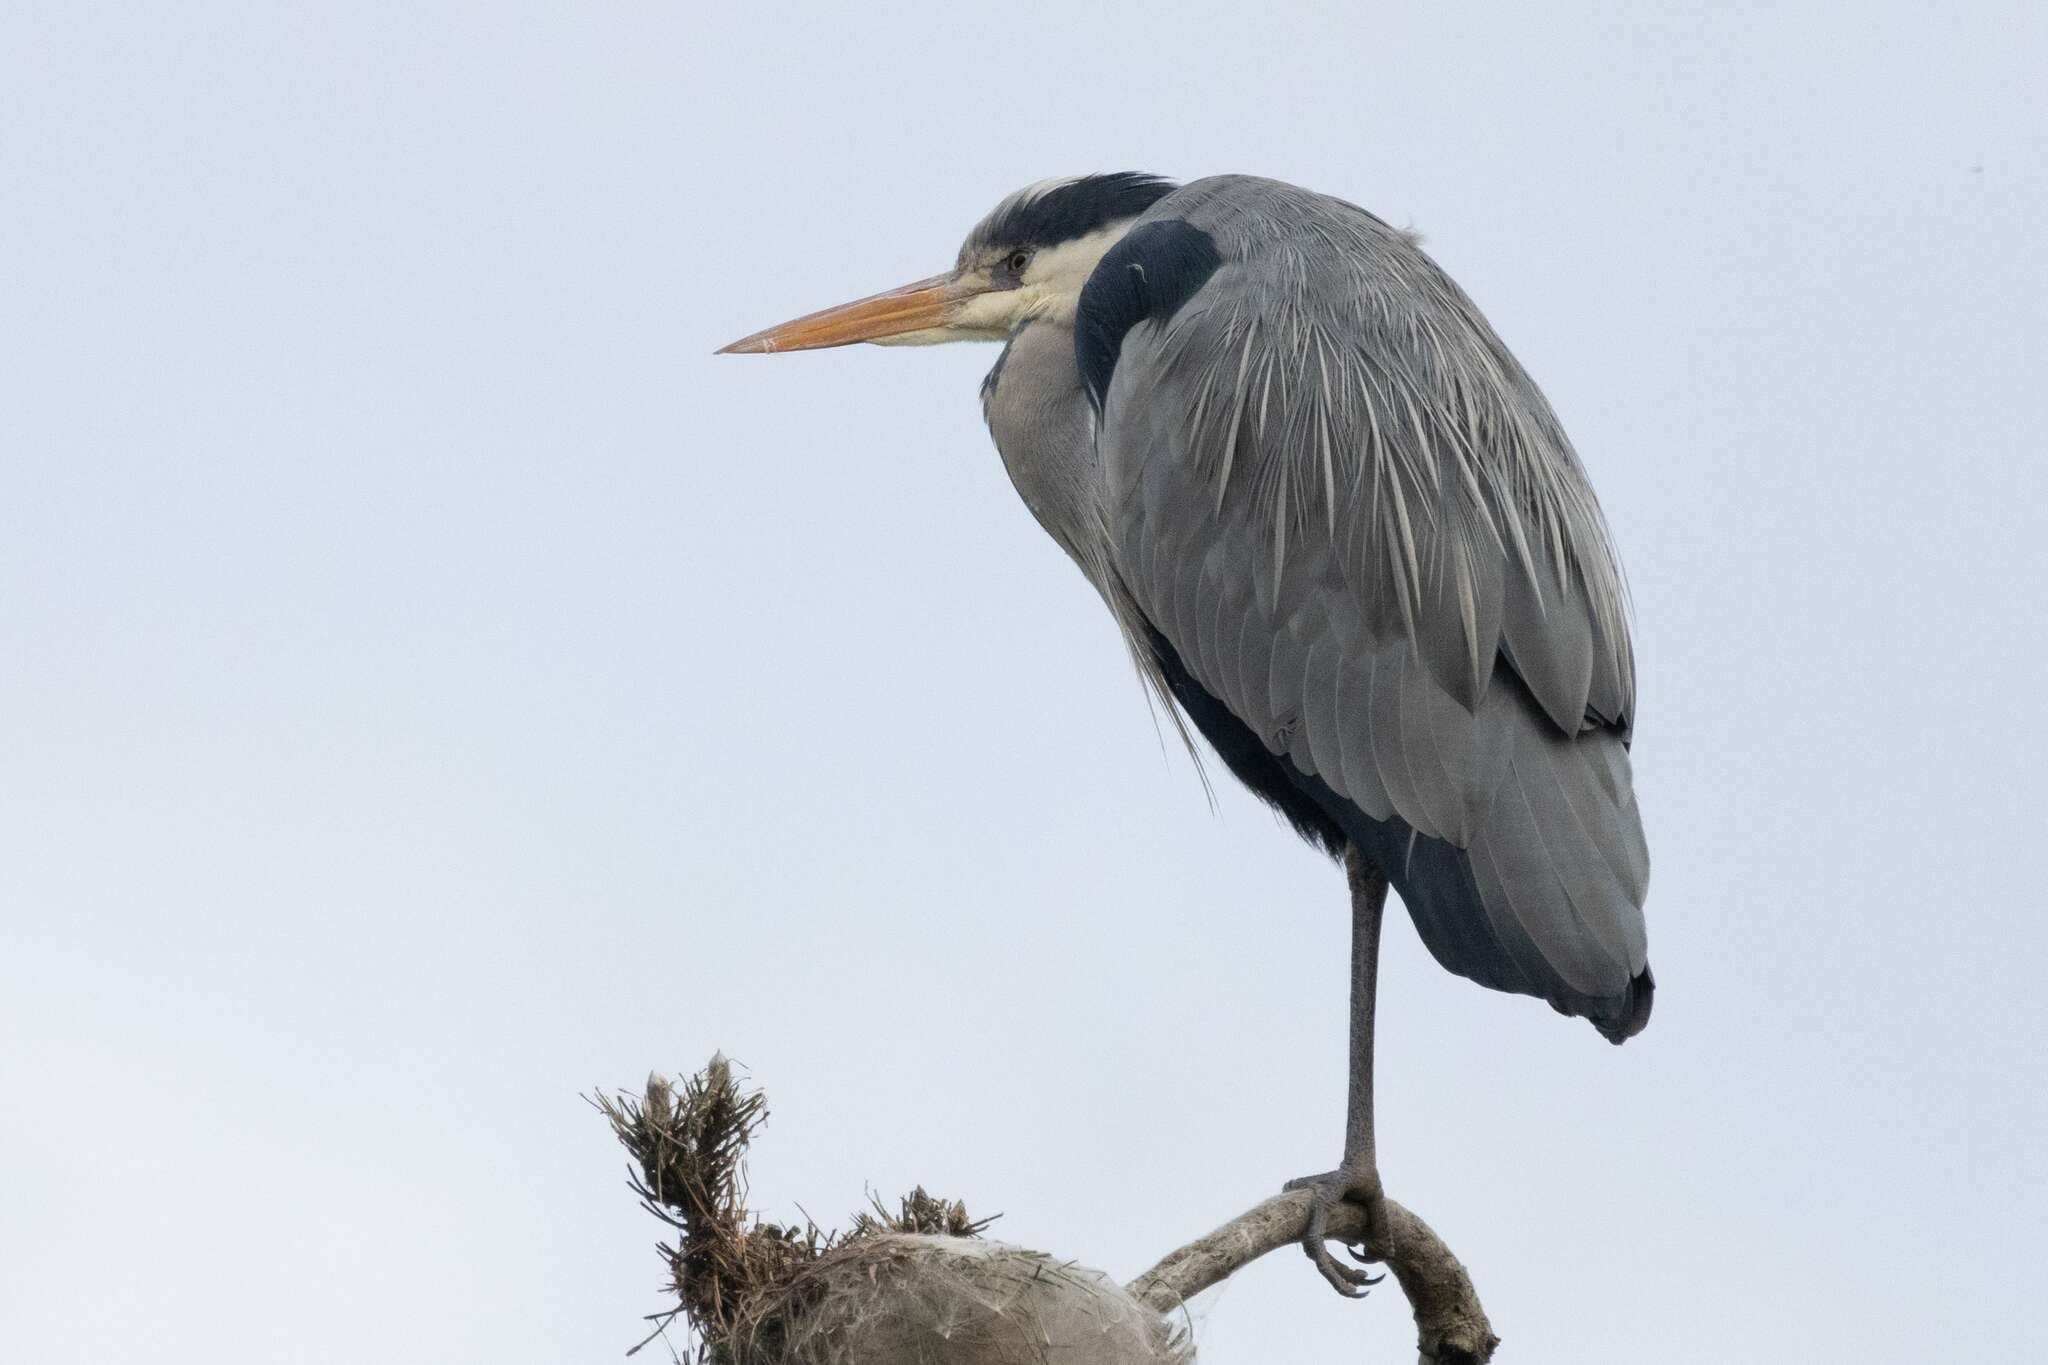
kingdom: Animalia
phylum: Chordata
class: Aves
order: Pelecaniformes
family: Ardeidae
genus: Ardea
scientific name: Ardea cinerea
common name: Grey heron
